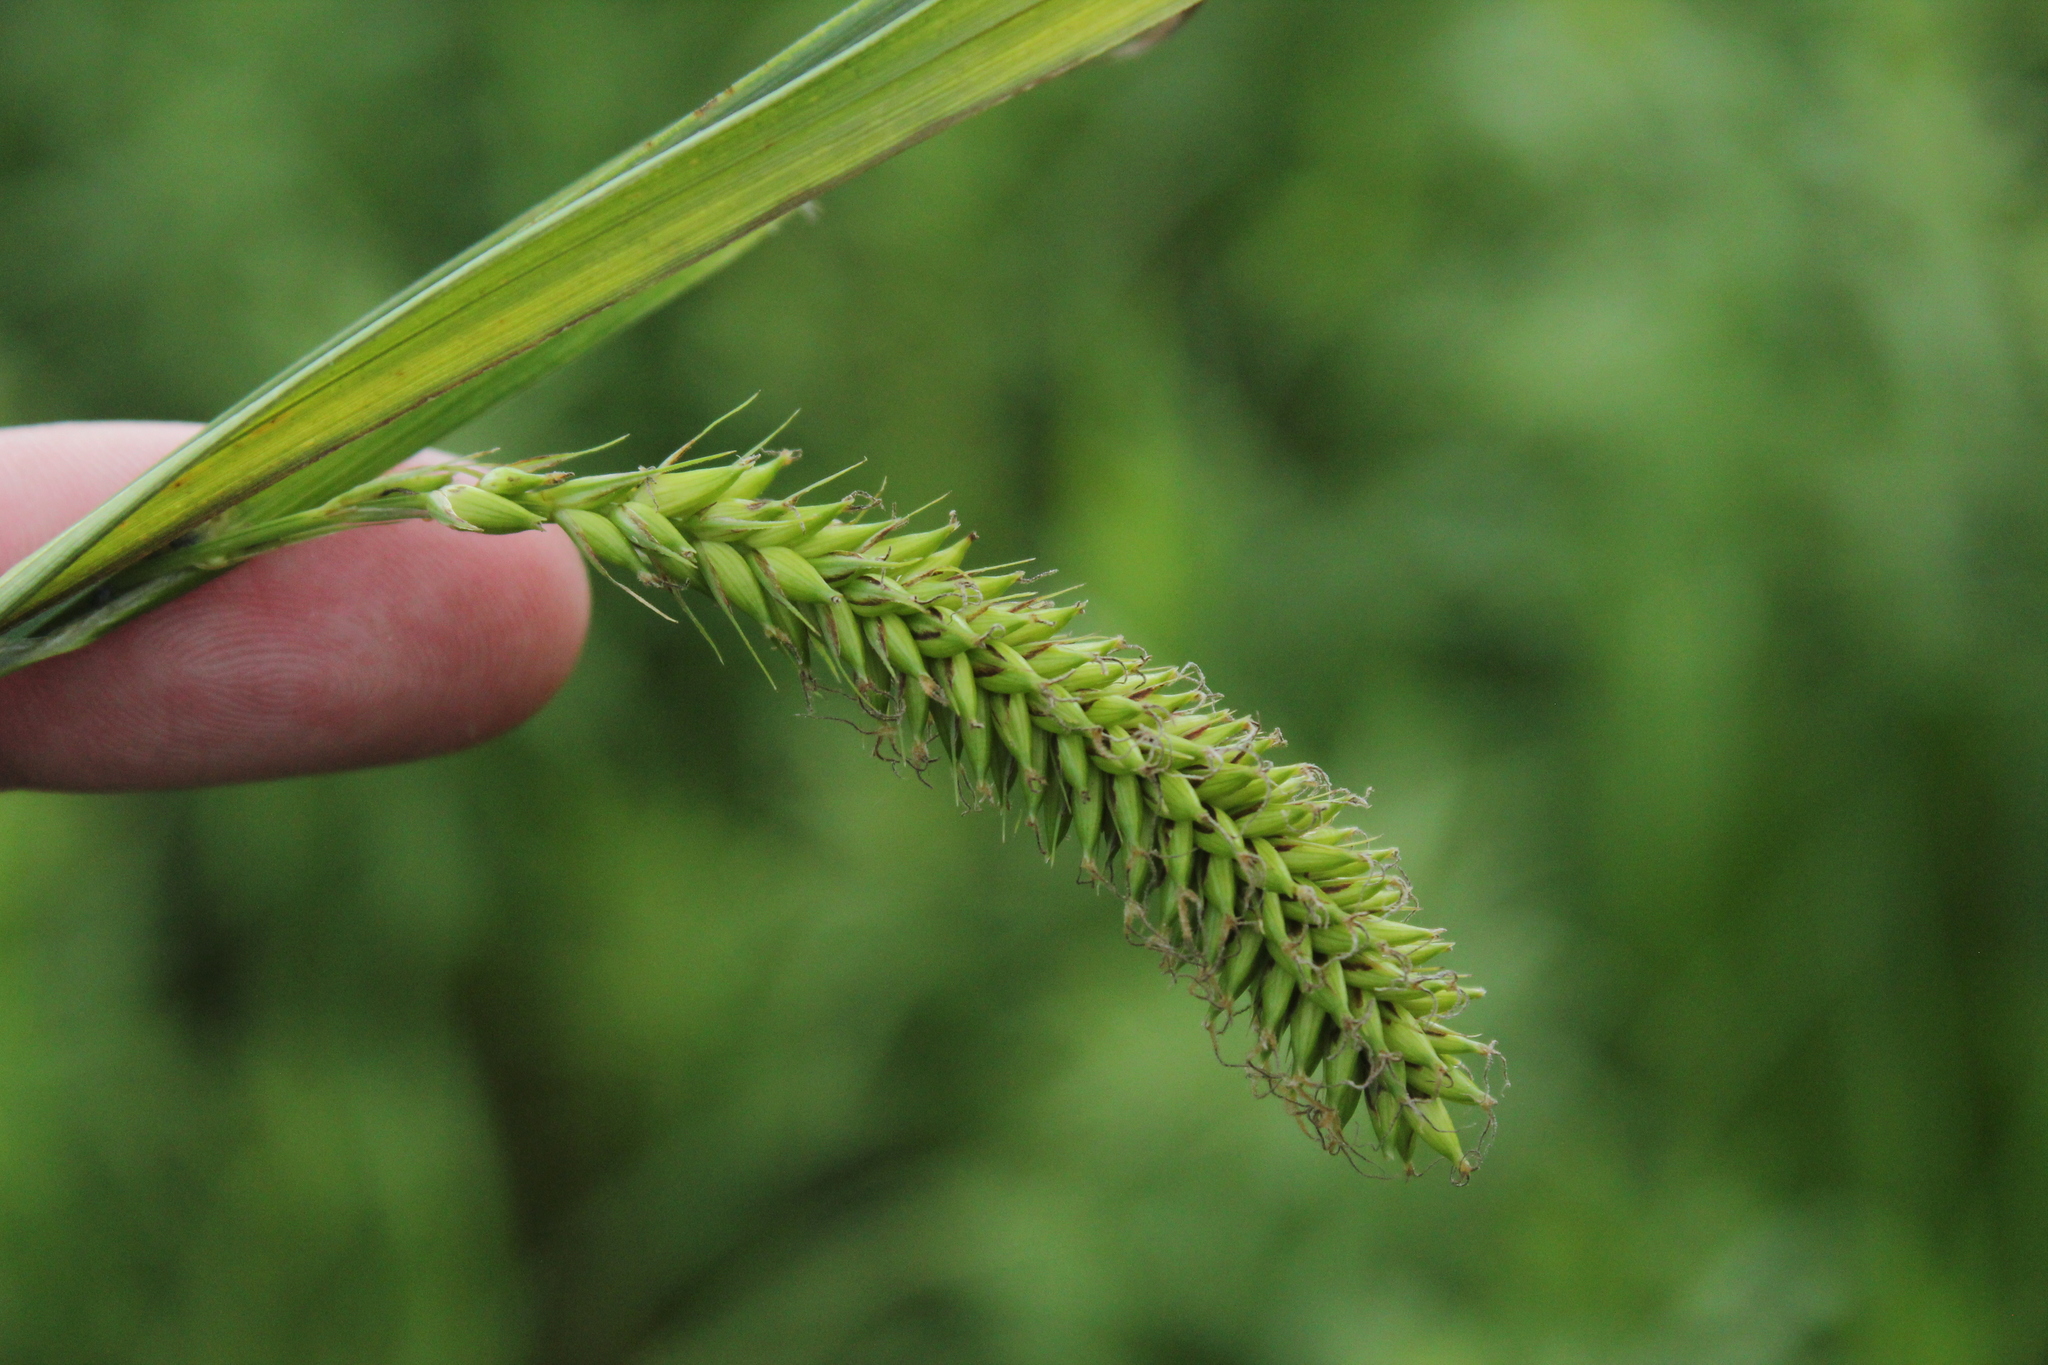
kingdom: Plantae
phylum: Tracheophyta
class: Liliopsida
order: Poales
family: Cyperaceae
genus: Carex
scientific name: Carex lacustris
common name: Common lake sedge
